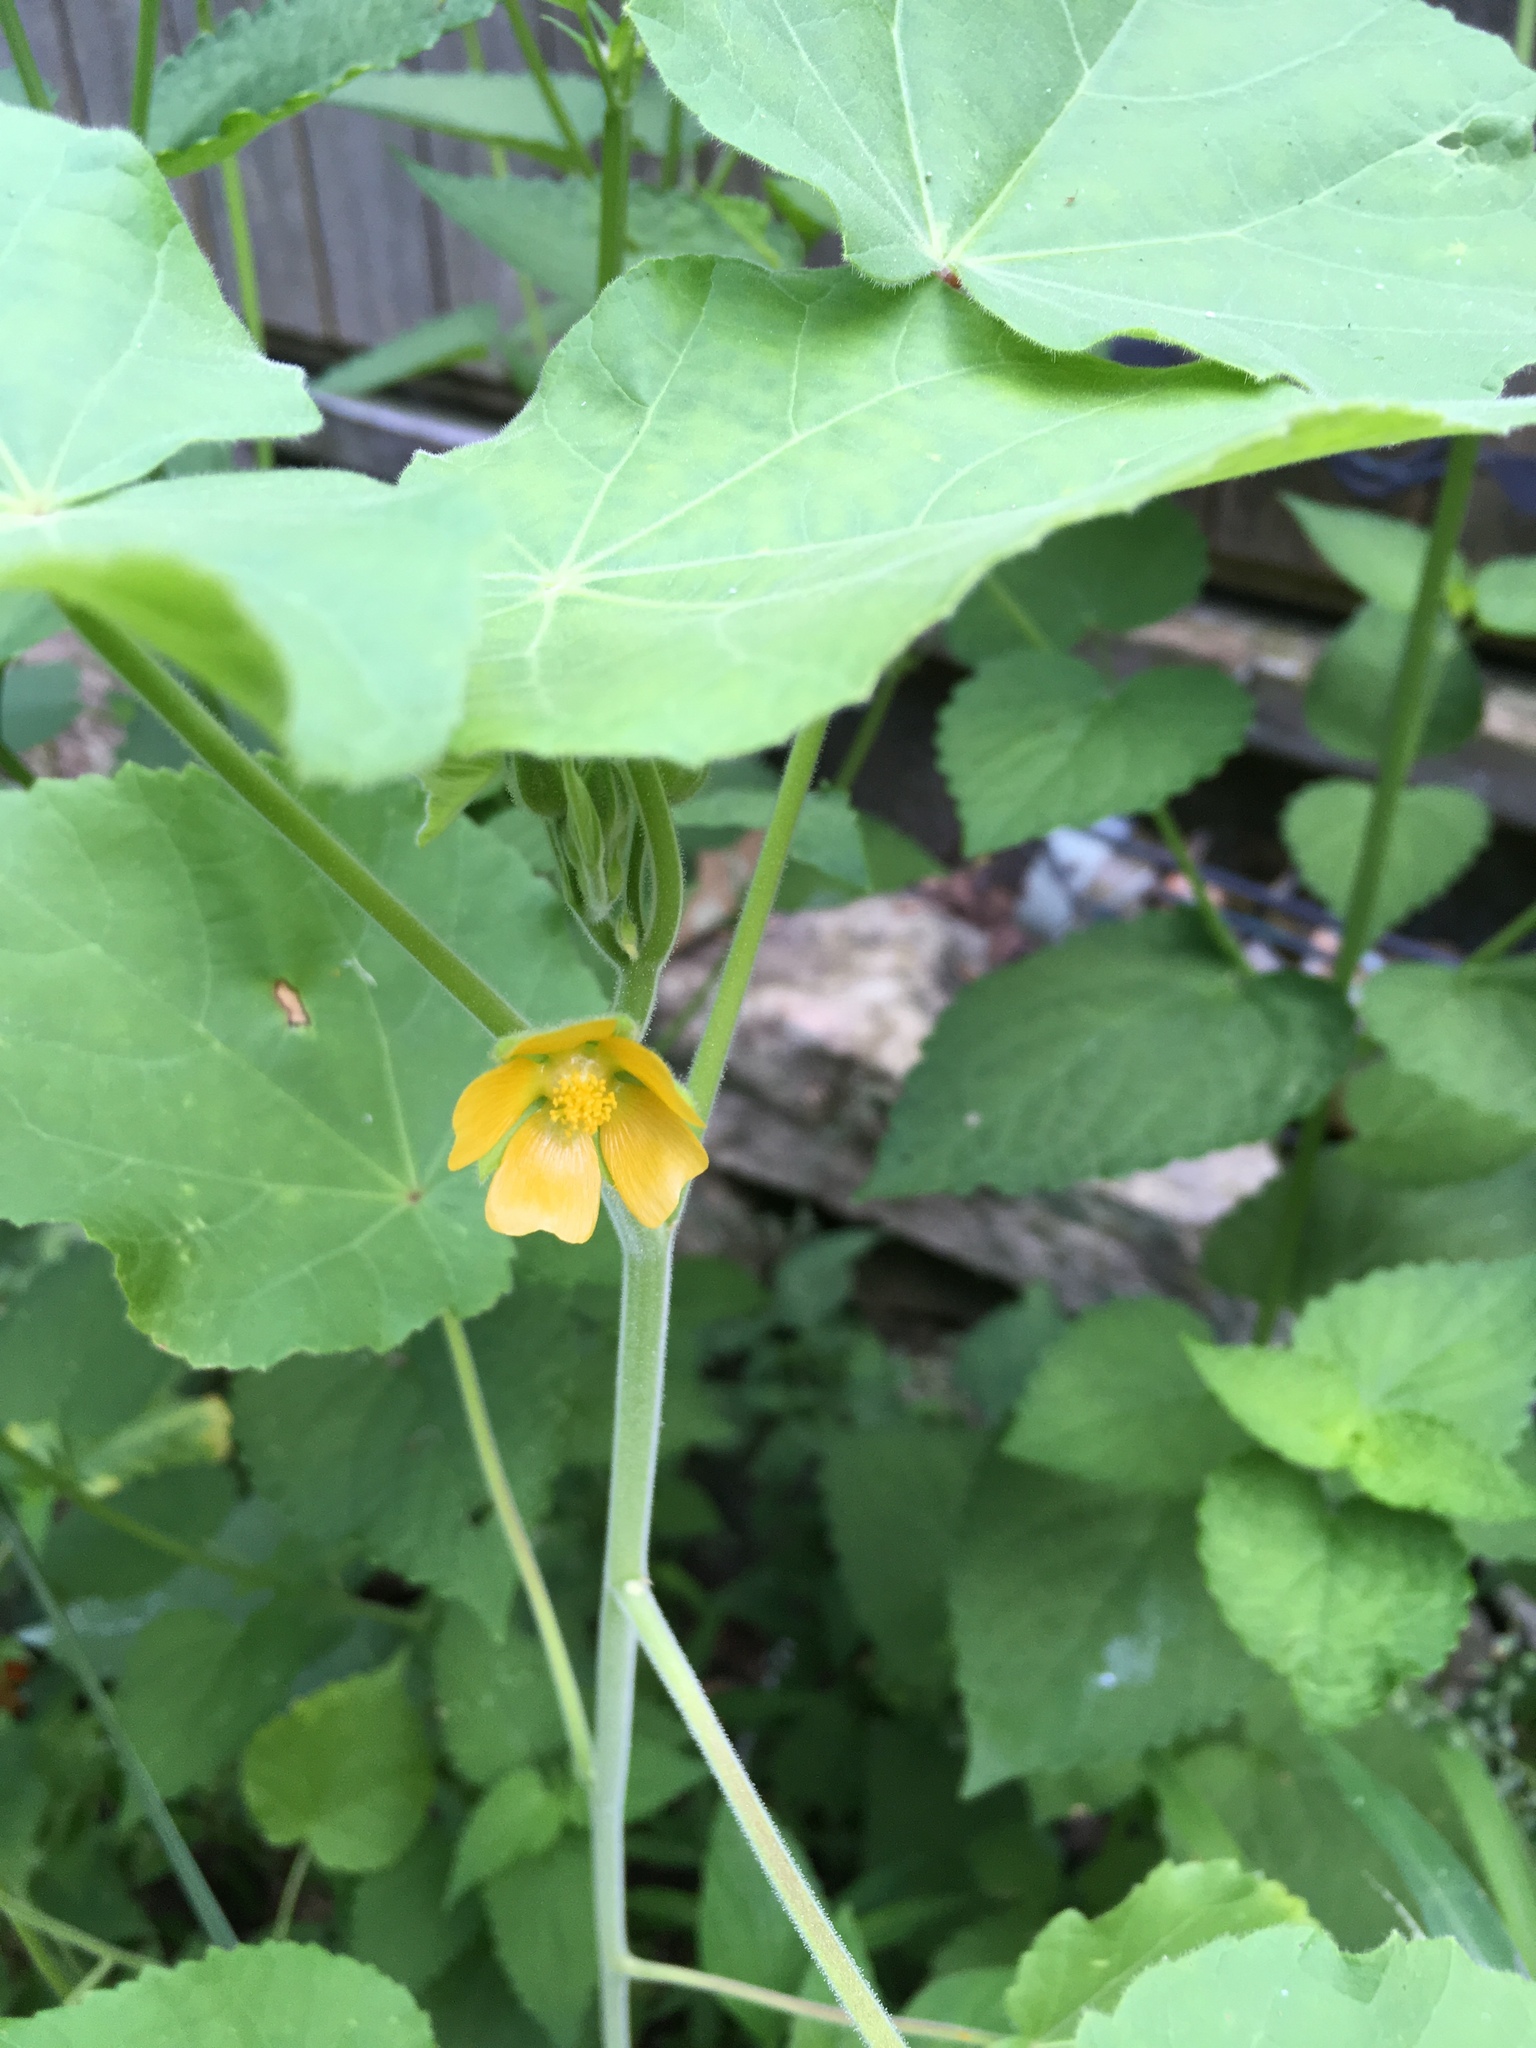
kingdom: Plantae
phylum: Tracheophyta
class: Magnoliopsida
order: Malvales
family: Malvaceae
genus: Abutilon
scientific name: Abutilon theophrasti
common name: Velvetleaf
